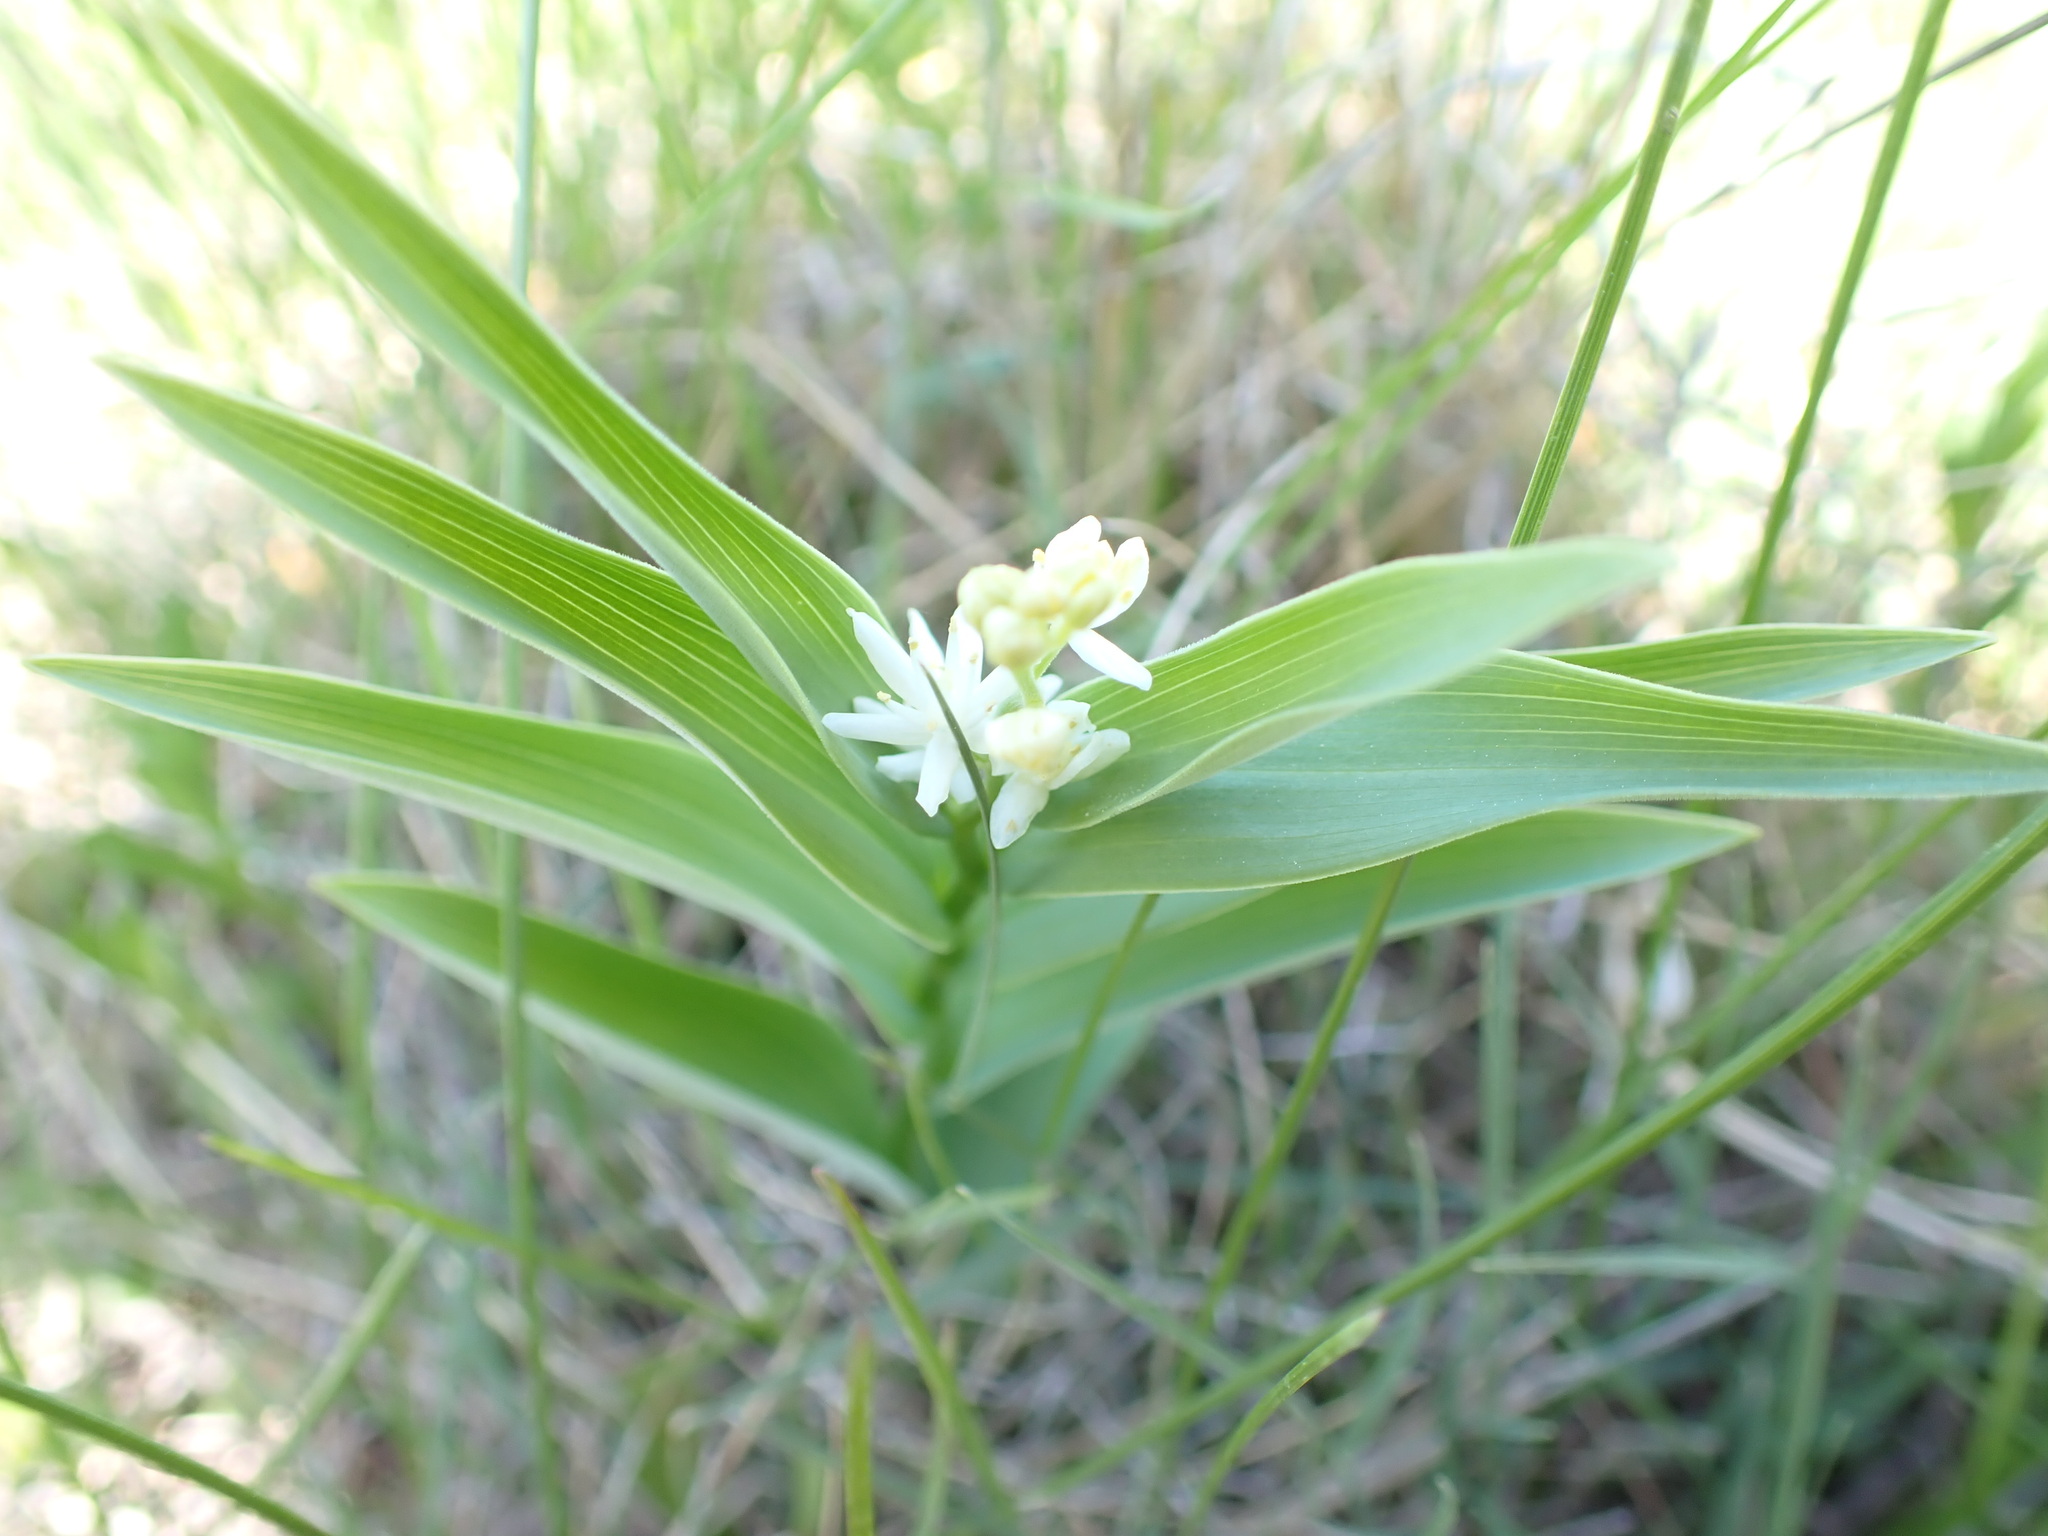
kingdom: Plantae
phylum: Tracheophyta
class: Liliopsida
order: Asparagales
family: Asparagaceae
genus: Maianthemum
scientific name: Maianthemum stellatum
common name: Little false solomon's seal
